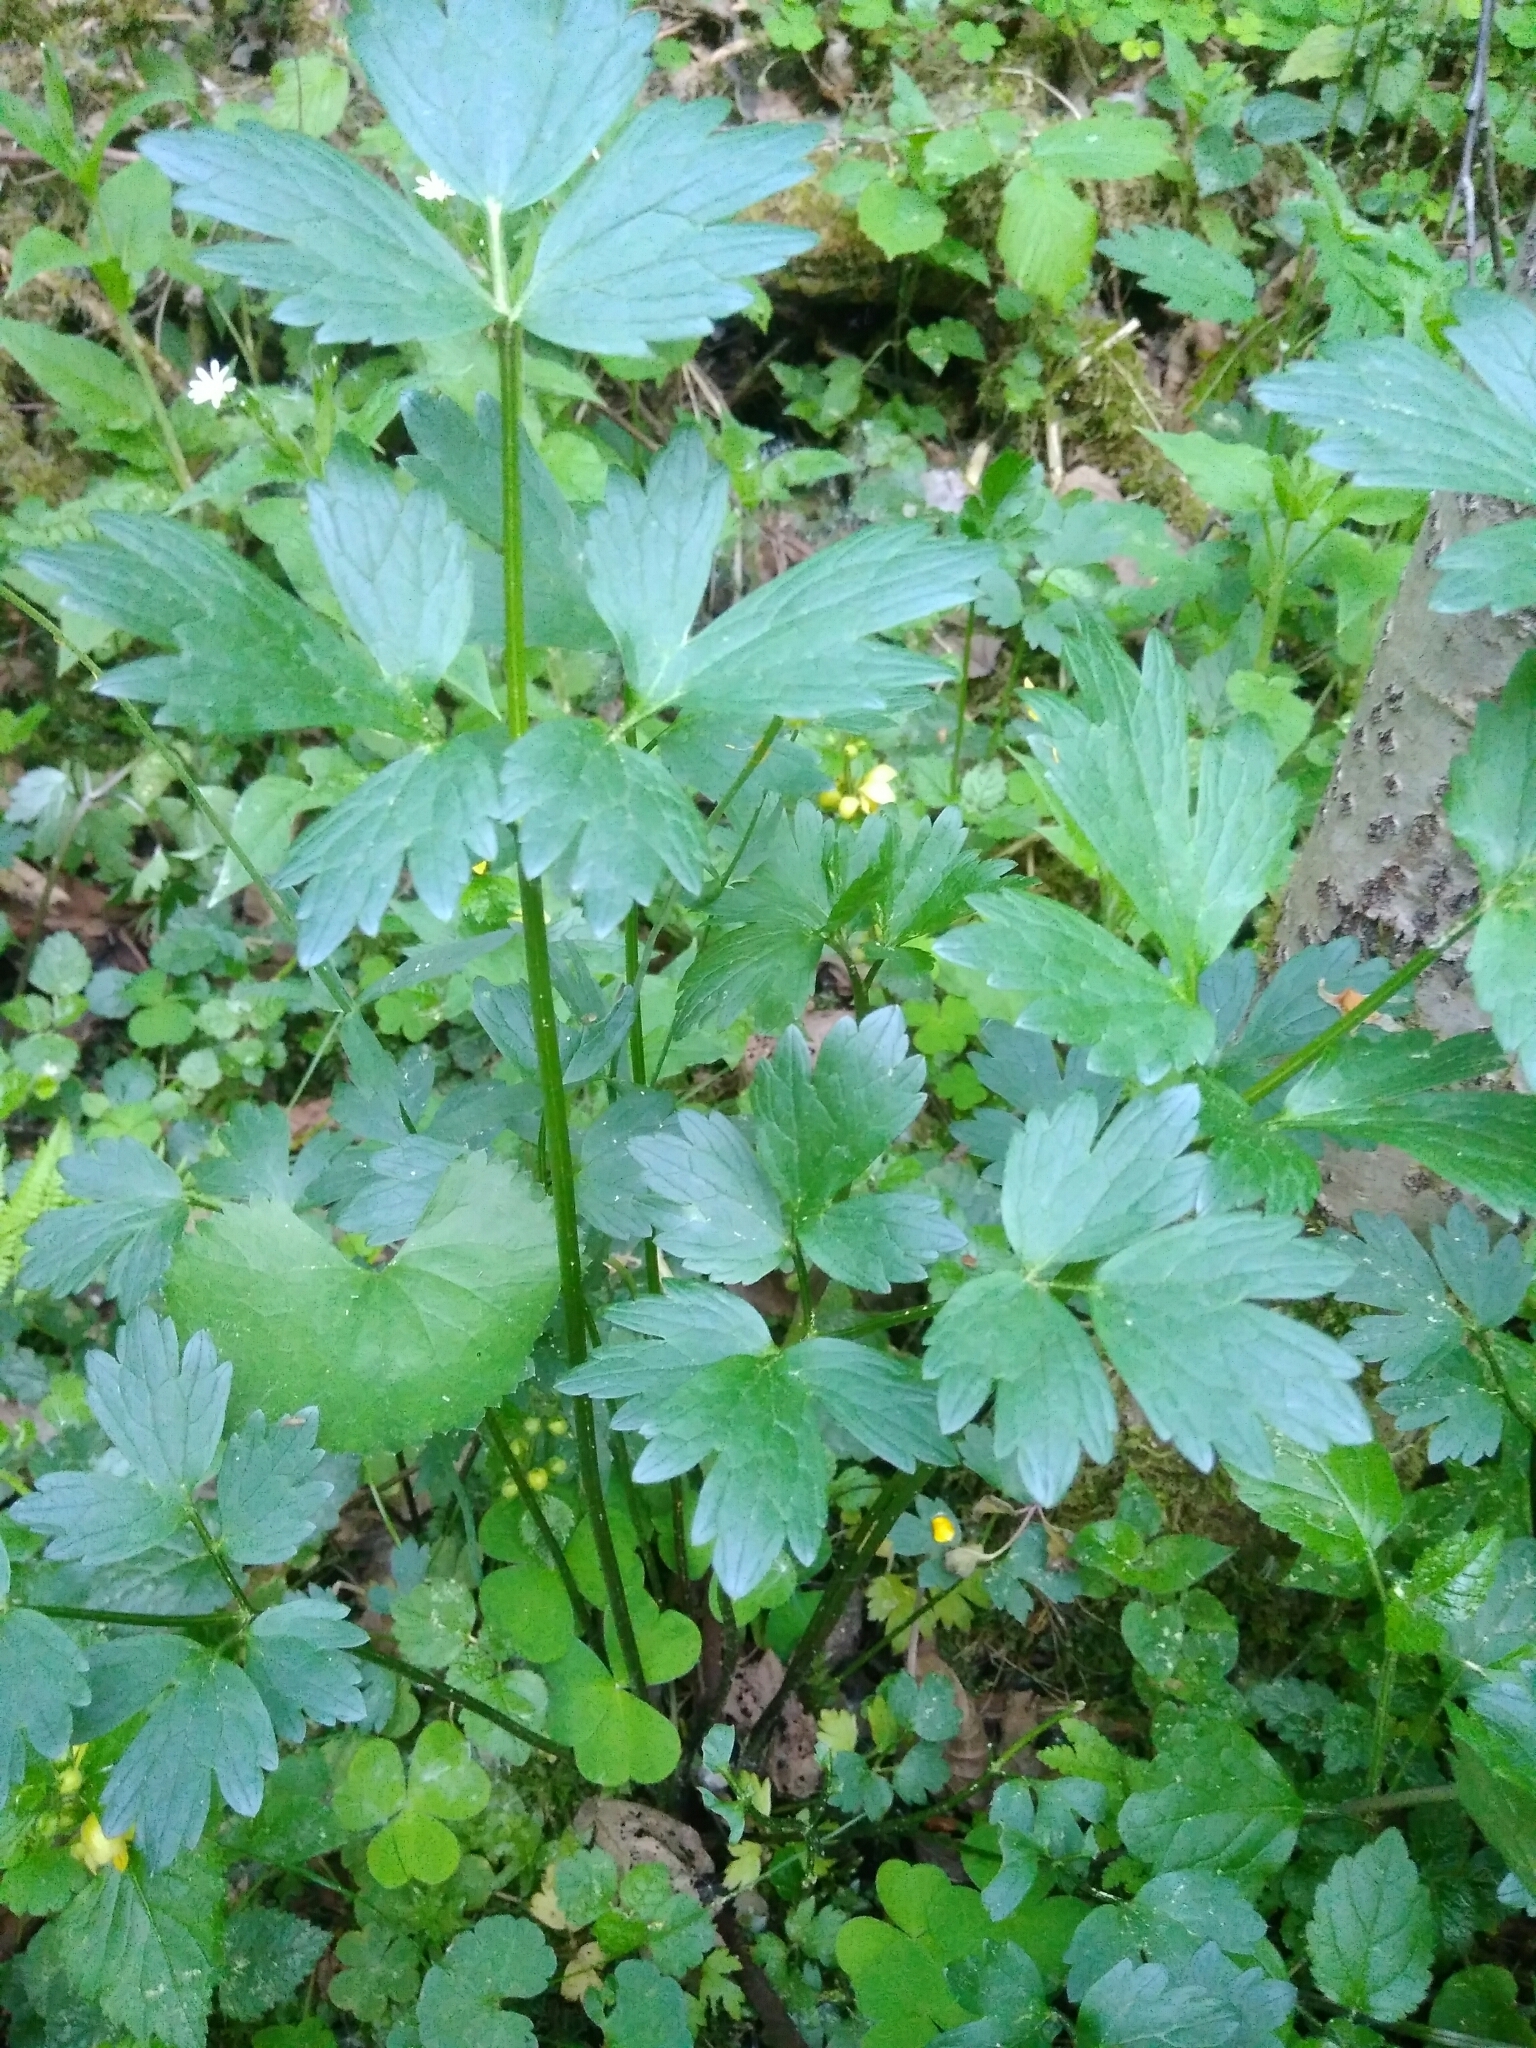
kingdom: Plantae
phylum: Tracheophyta
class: Magnoliopsida
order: Ranunculales
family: Ranunculaceae
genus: Ranunculus
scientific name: Ranunculus repens
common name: Creeping buttercup
